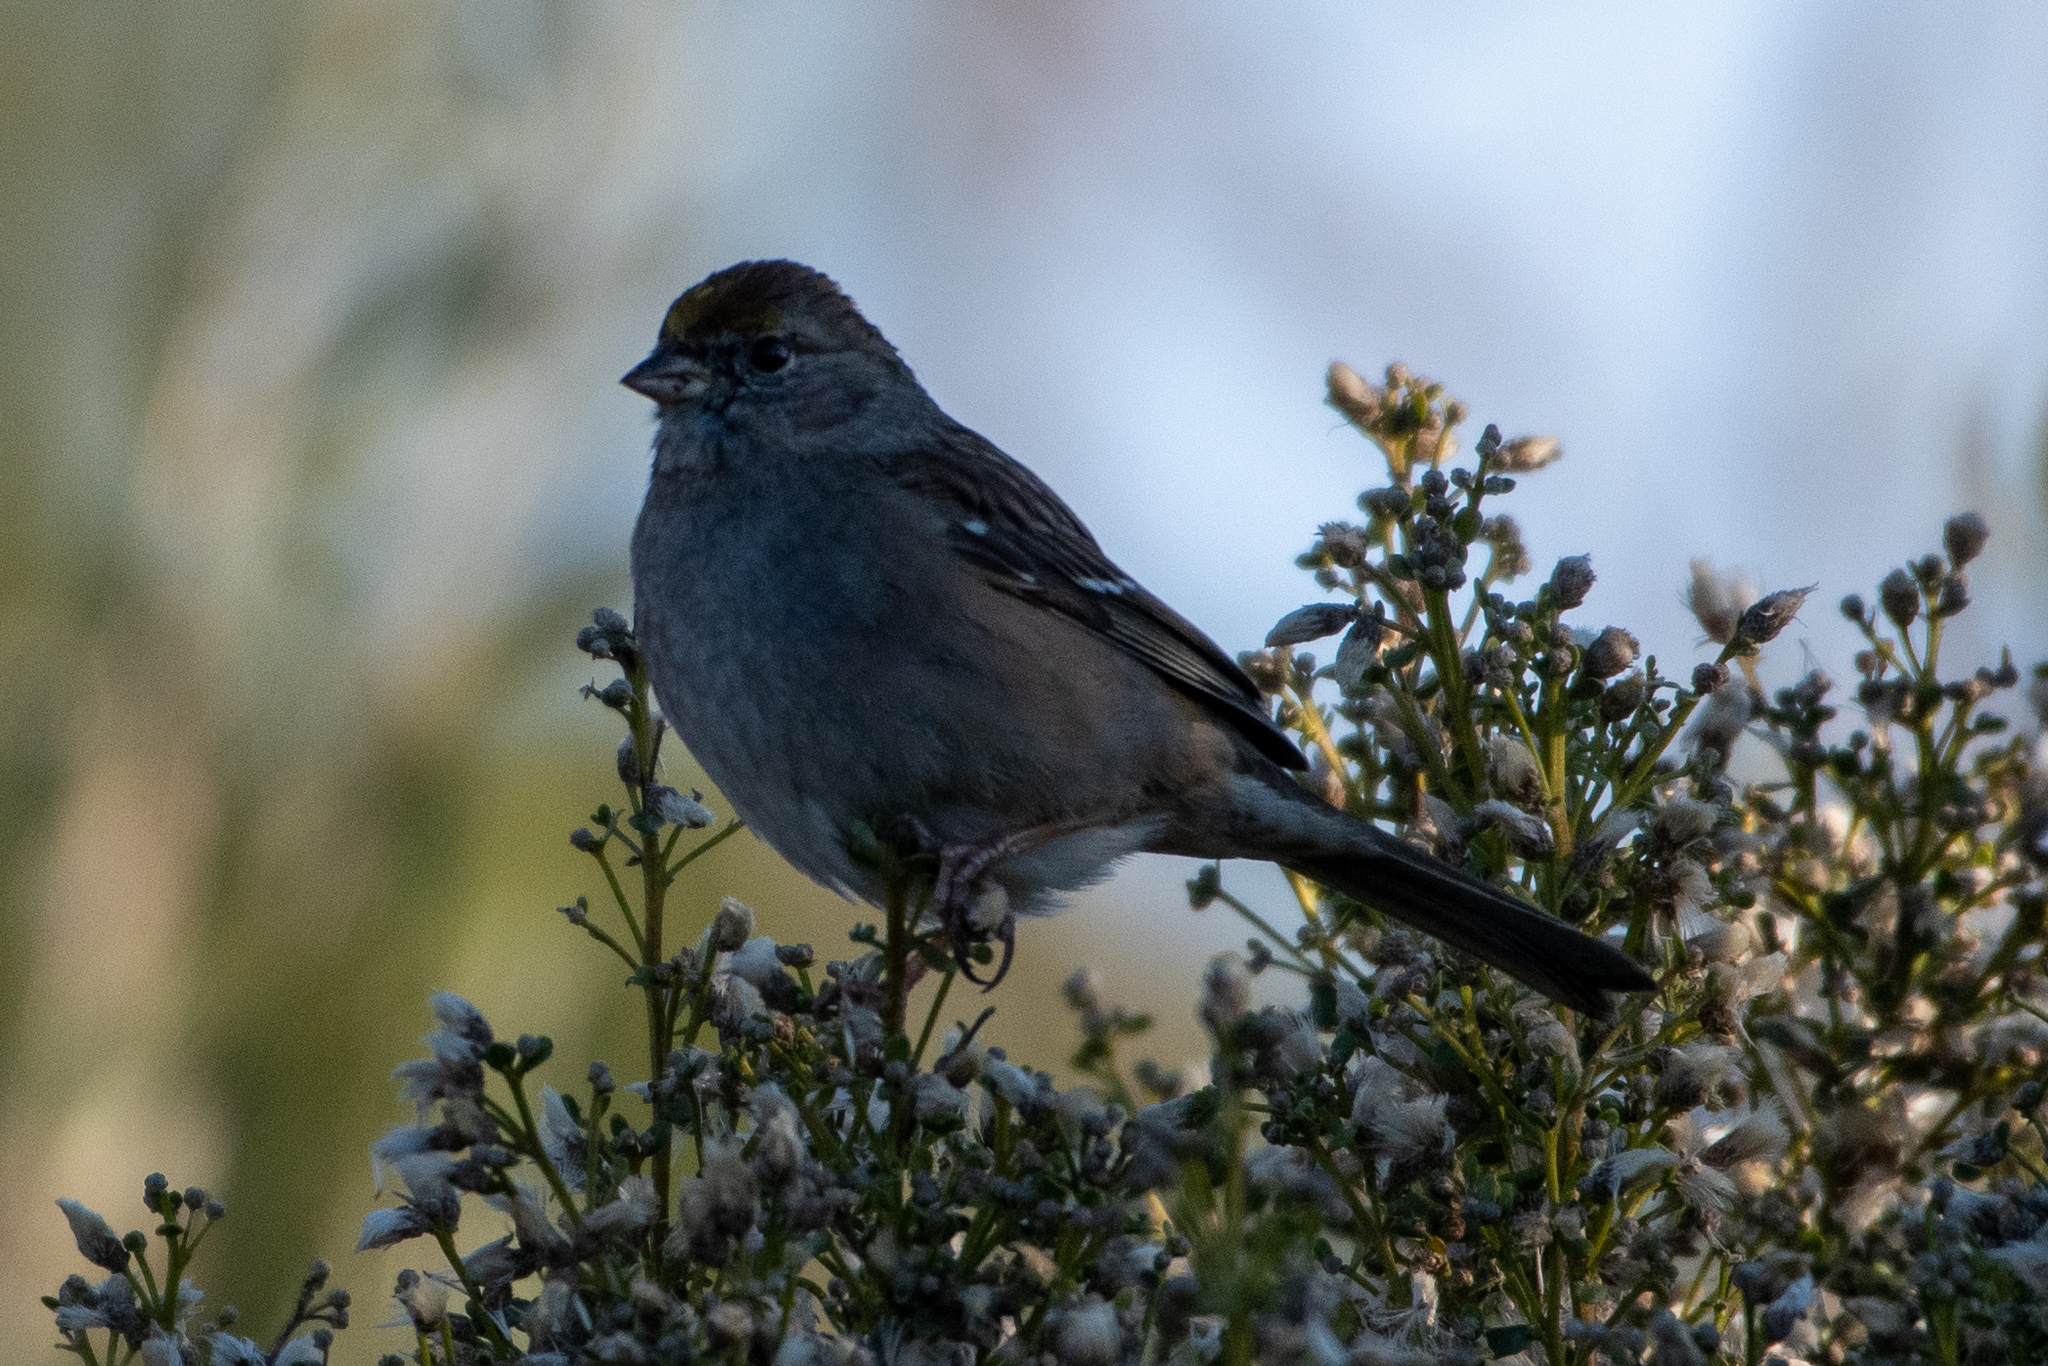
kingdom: Animalia
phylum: Chordata
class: Aves
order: Passeriformes
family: Passerellidae
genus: Zonotrichia
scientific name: Zonotrichia atricapilla
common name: Golden-crowned sparrow
